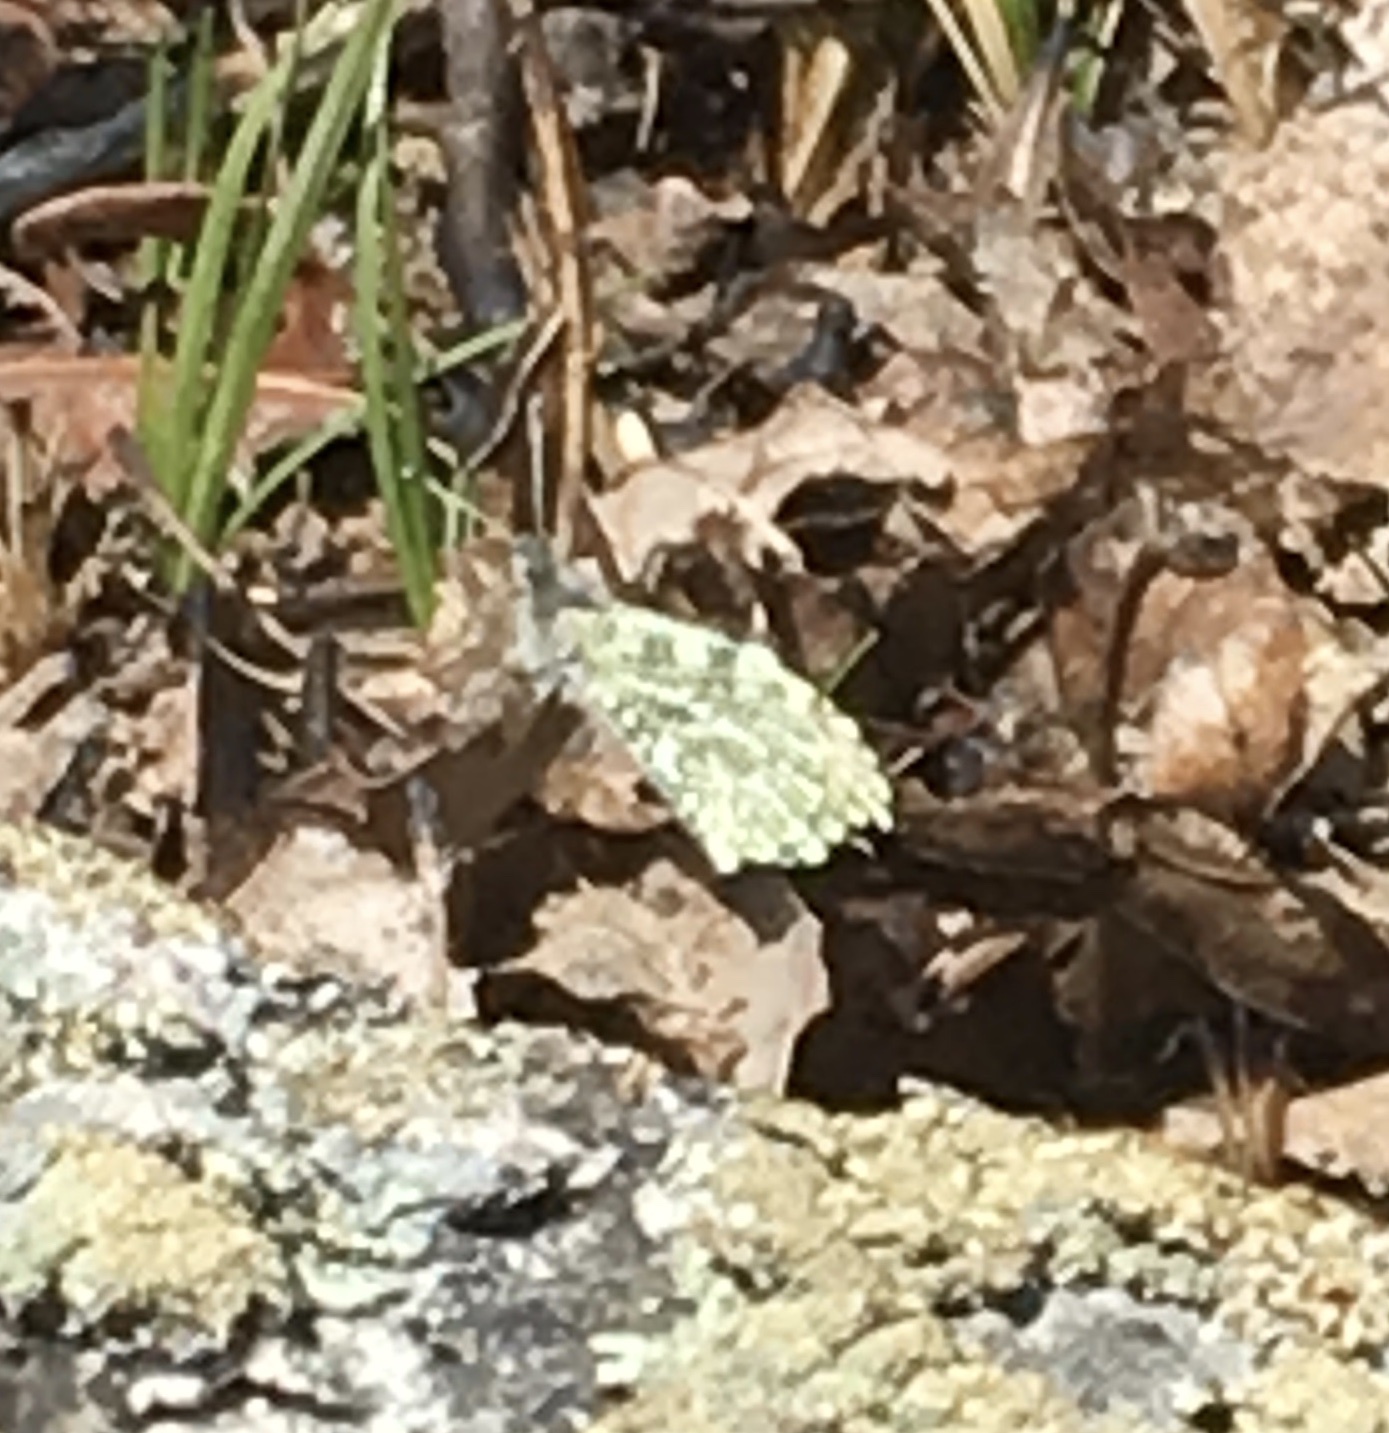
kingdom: Animalia
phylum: Arthropoda
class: Insecta
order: Lepidoptera
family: Pieridae
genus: Anthocharis
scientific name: Anthocharis midea
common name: Falcate orangetip
